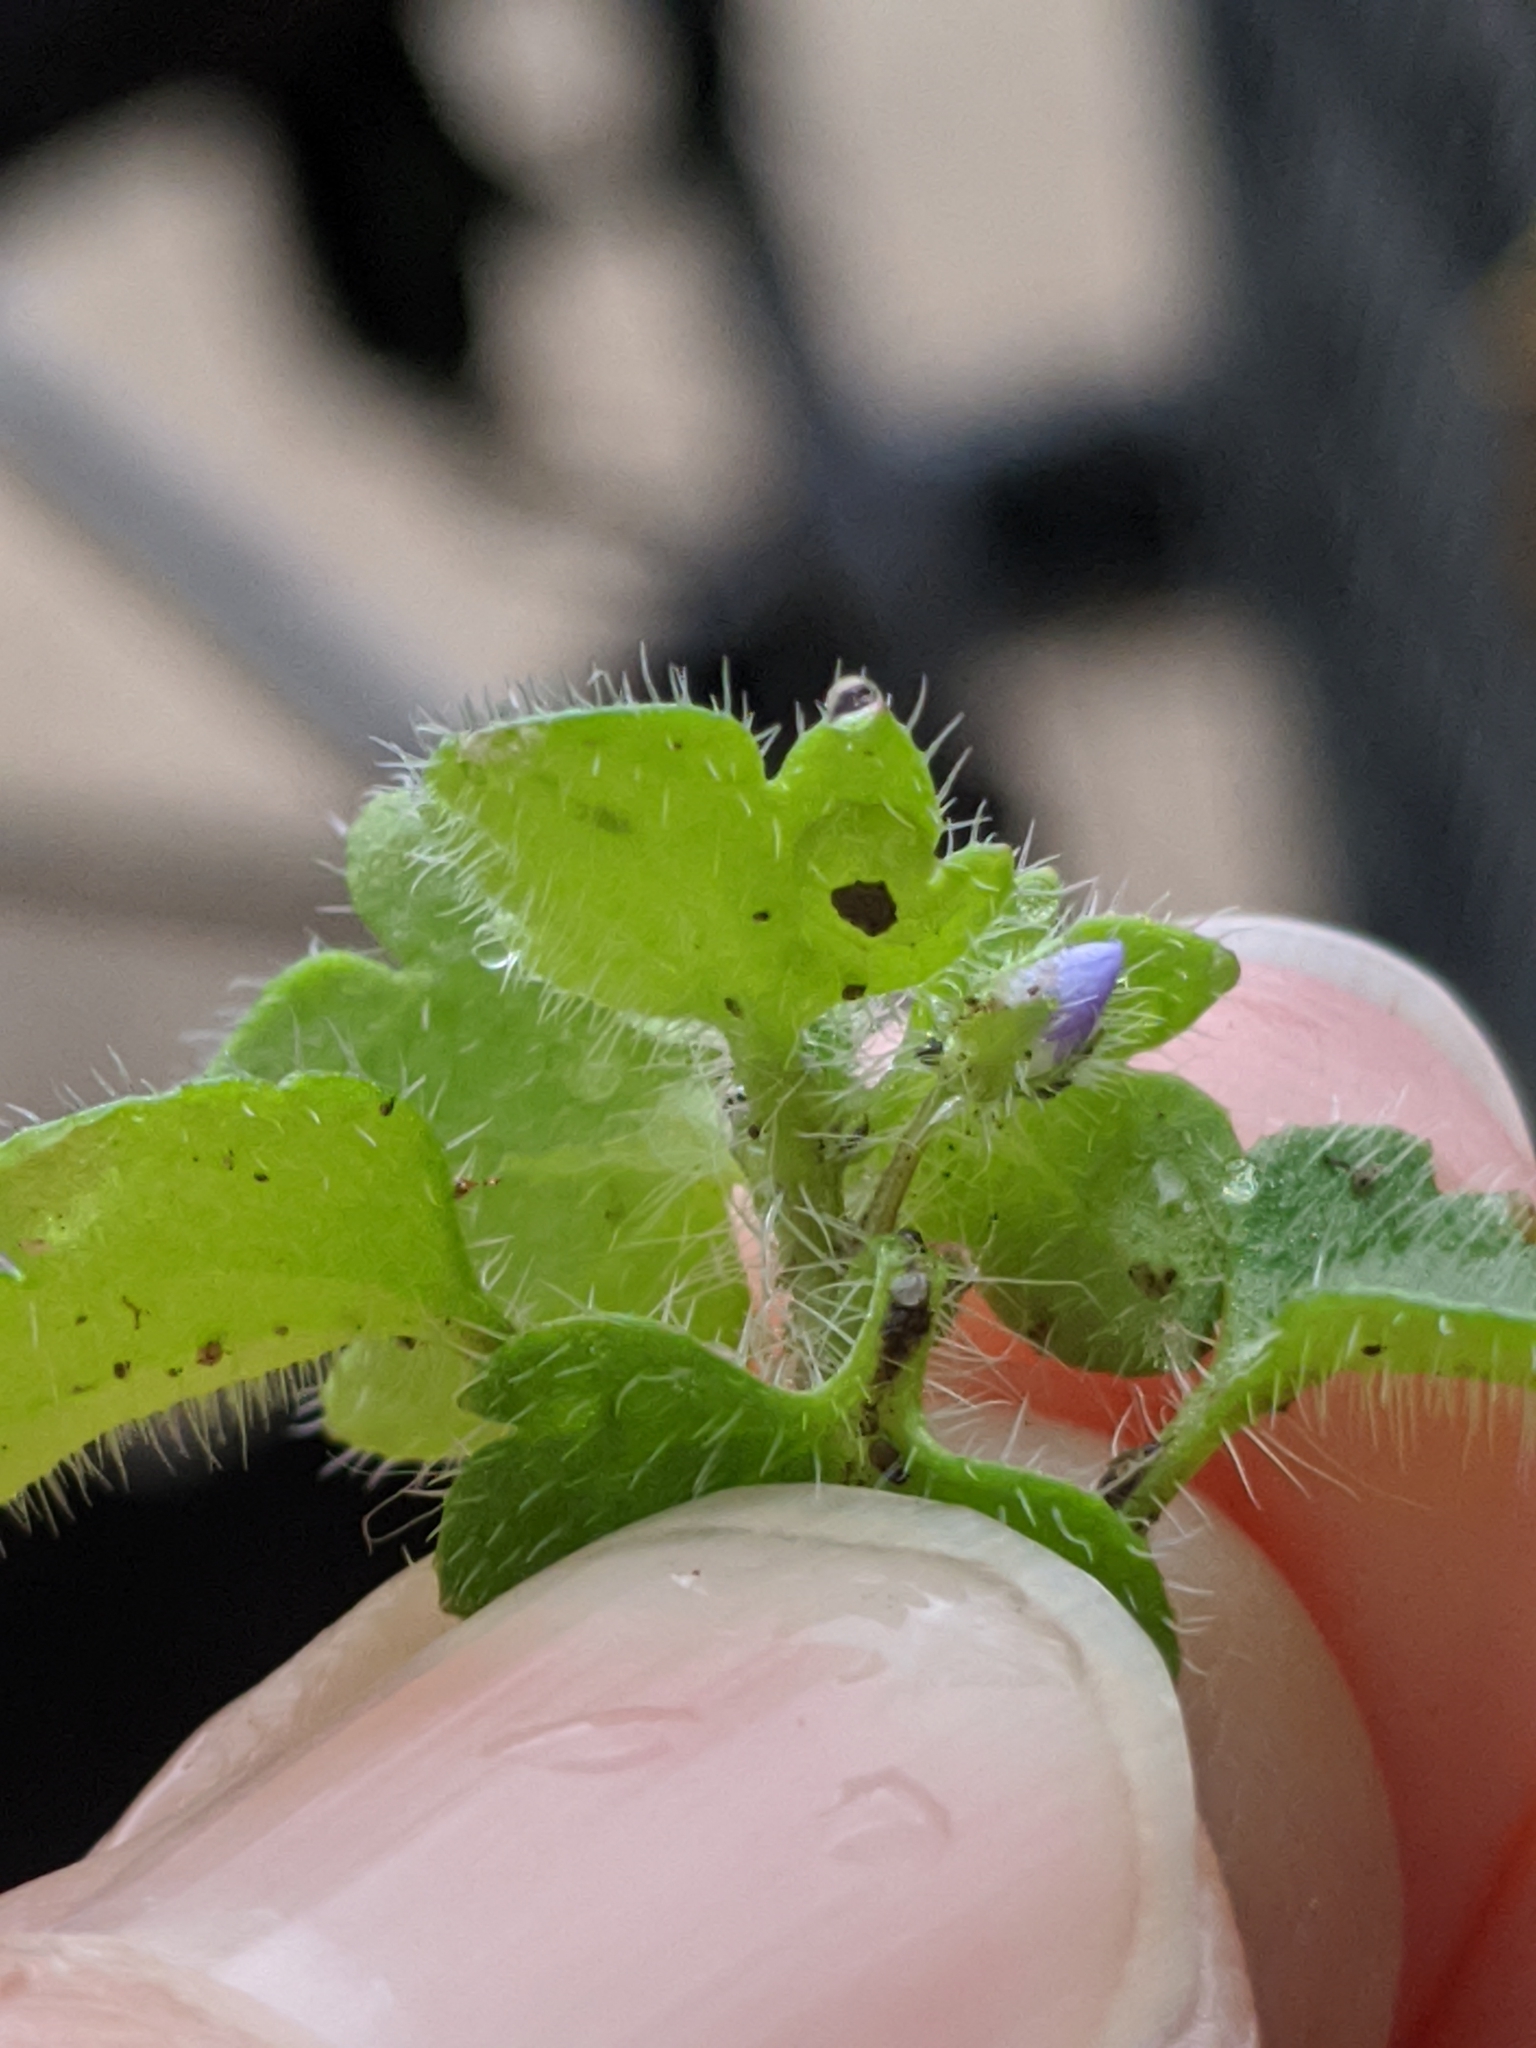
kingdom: Plantae
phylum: Tracheophyta
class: Magnoliopsida
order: Lamiales
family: Plantaginaceae
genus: Veronica
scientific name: Veronica hederifolia
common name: Ivy-leaved speedwell
